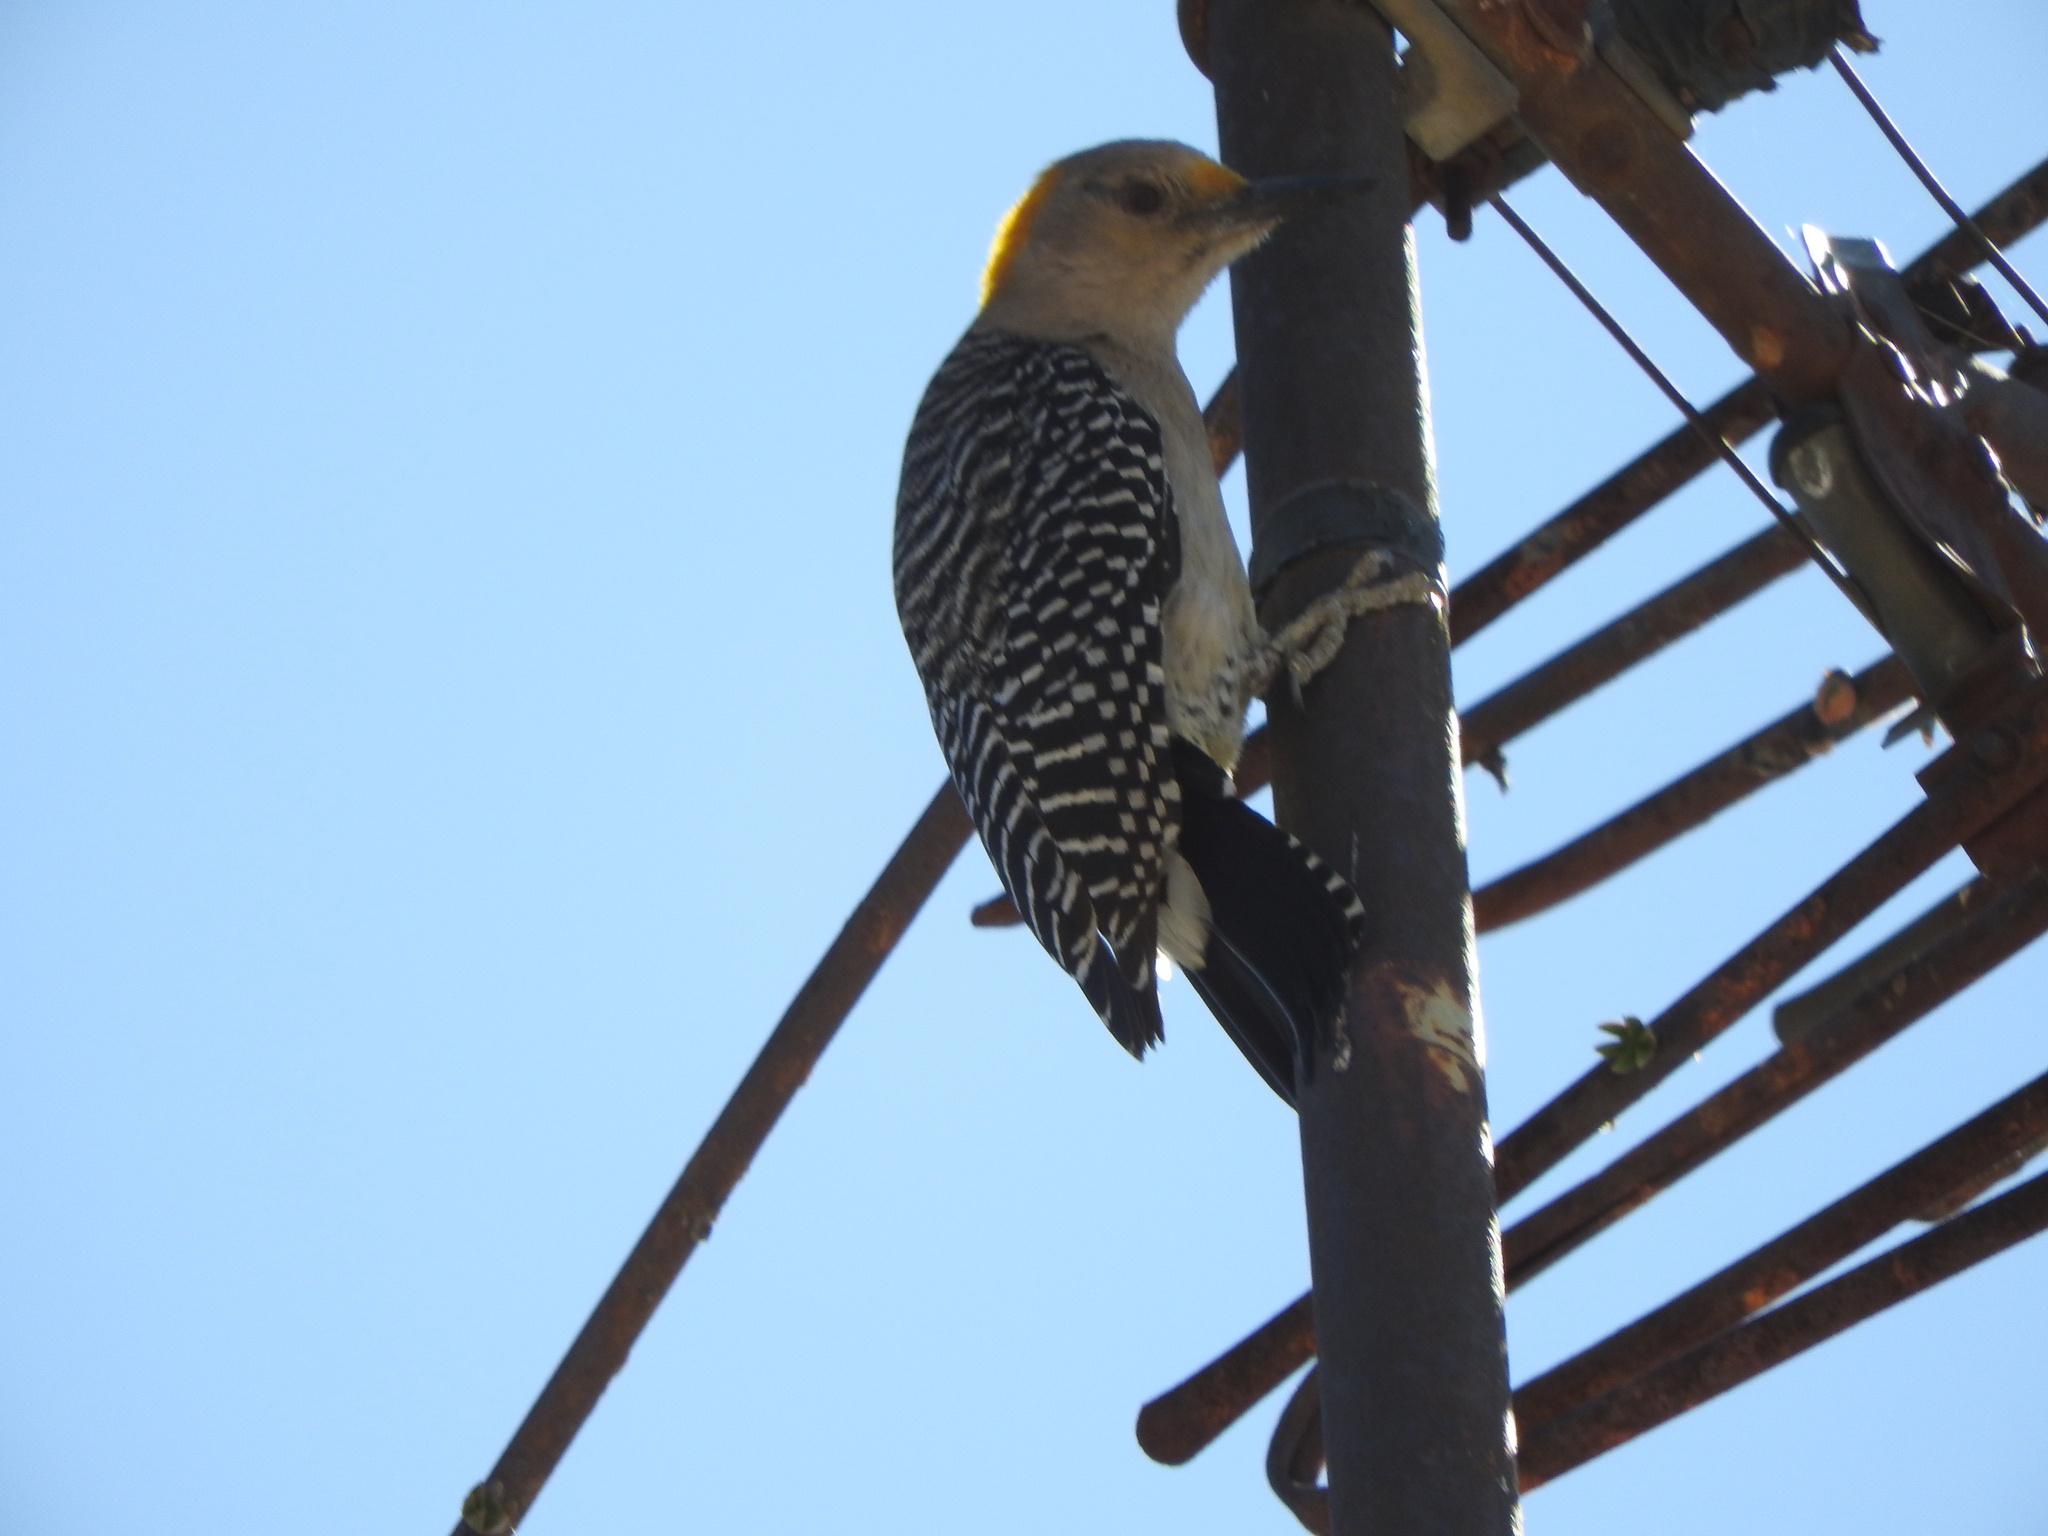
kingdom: Animalia
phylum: Chordata
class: Aves
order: Piciformes
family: Picidae
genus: Melanerpes
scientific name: Melanerpes aurifrons
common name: Golden-fronted woodpecker
